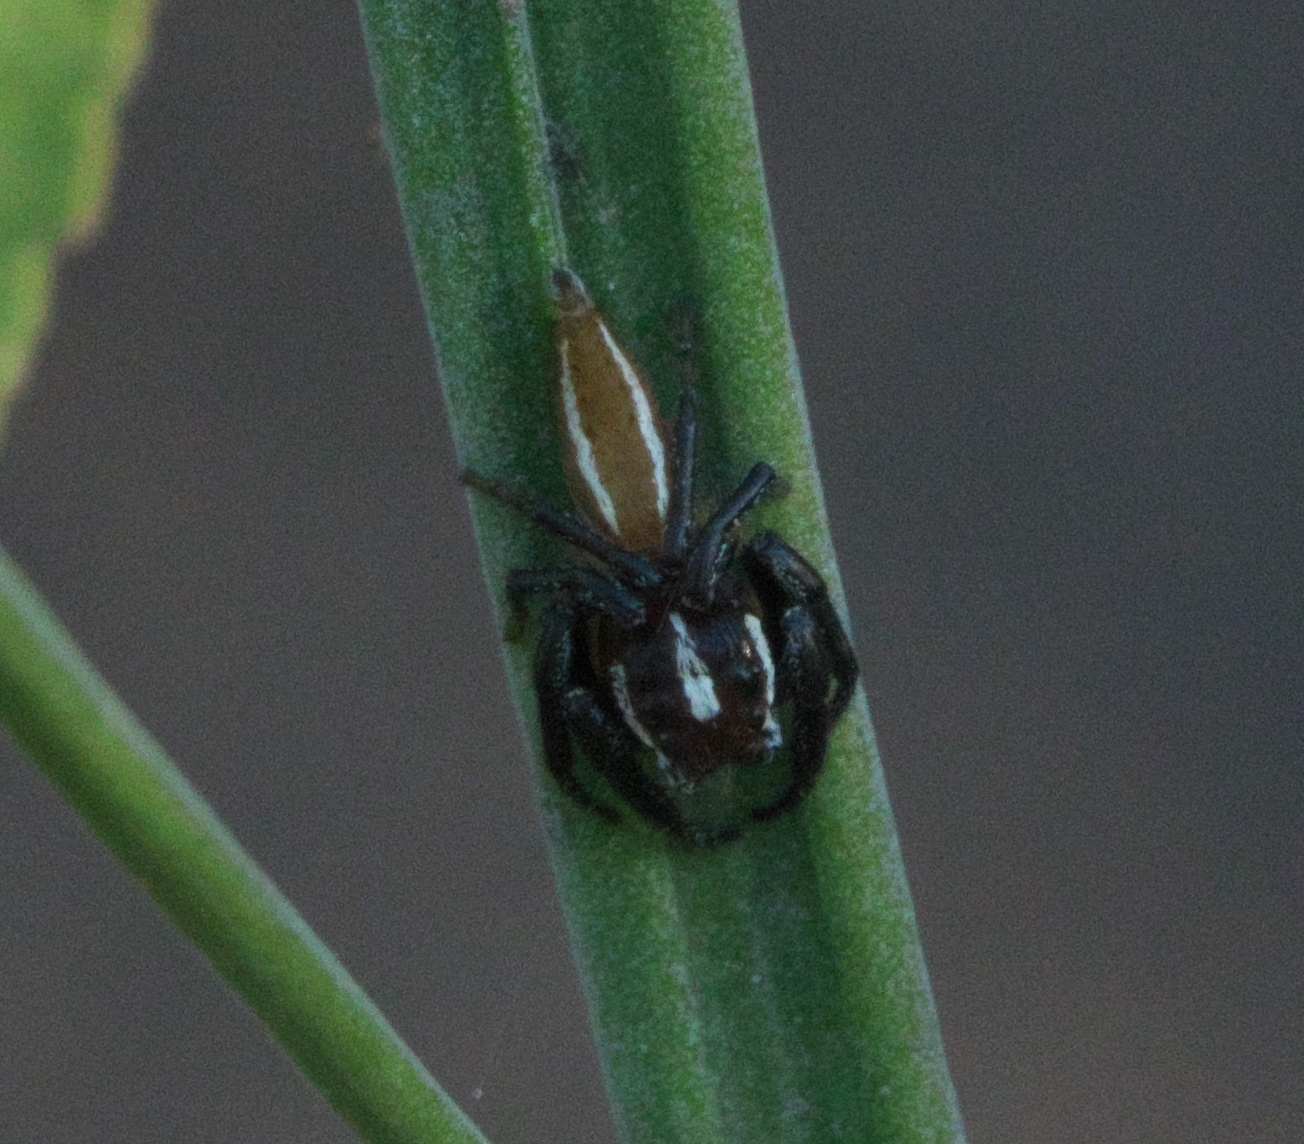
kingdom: Animalia
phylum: Arthropoda
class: Arachnida
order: Araneae
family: Salticidae
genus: Colonus
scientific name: Colonus puerperus
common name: Jumping spiders
